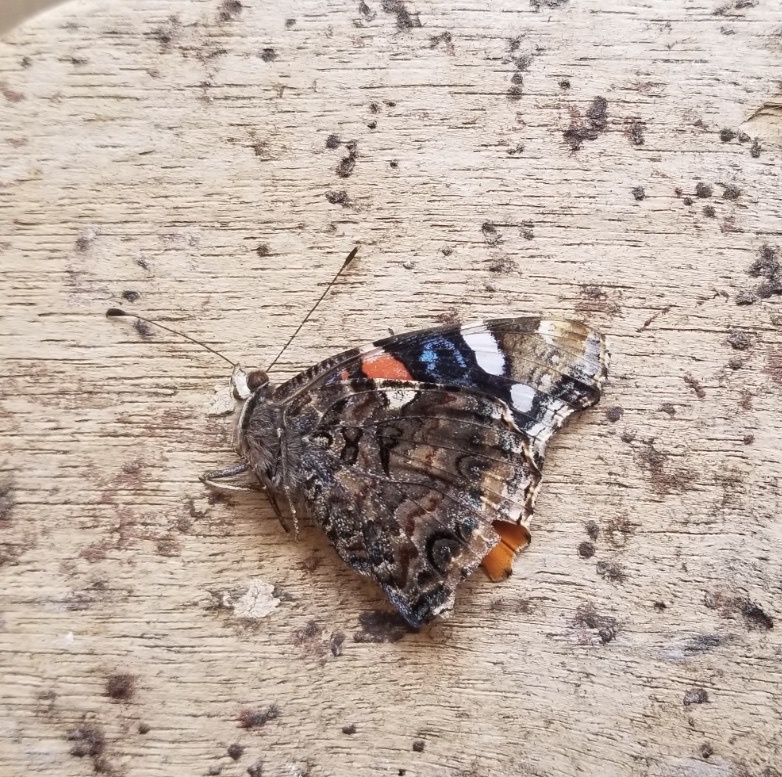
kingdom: Animalia
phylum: Arthropoda
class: Insecta
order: Lepidoptera
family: Nymphalidae
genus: Vanessa
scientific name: Vanessa atalanta
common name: Red admiral
